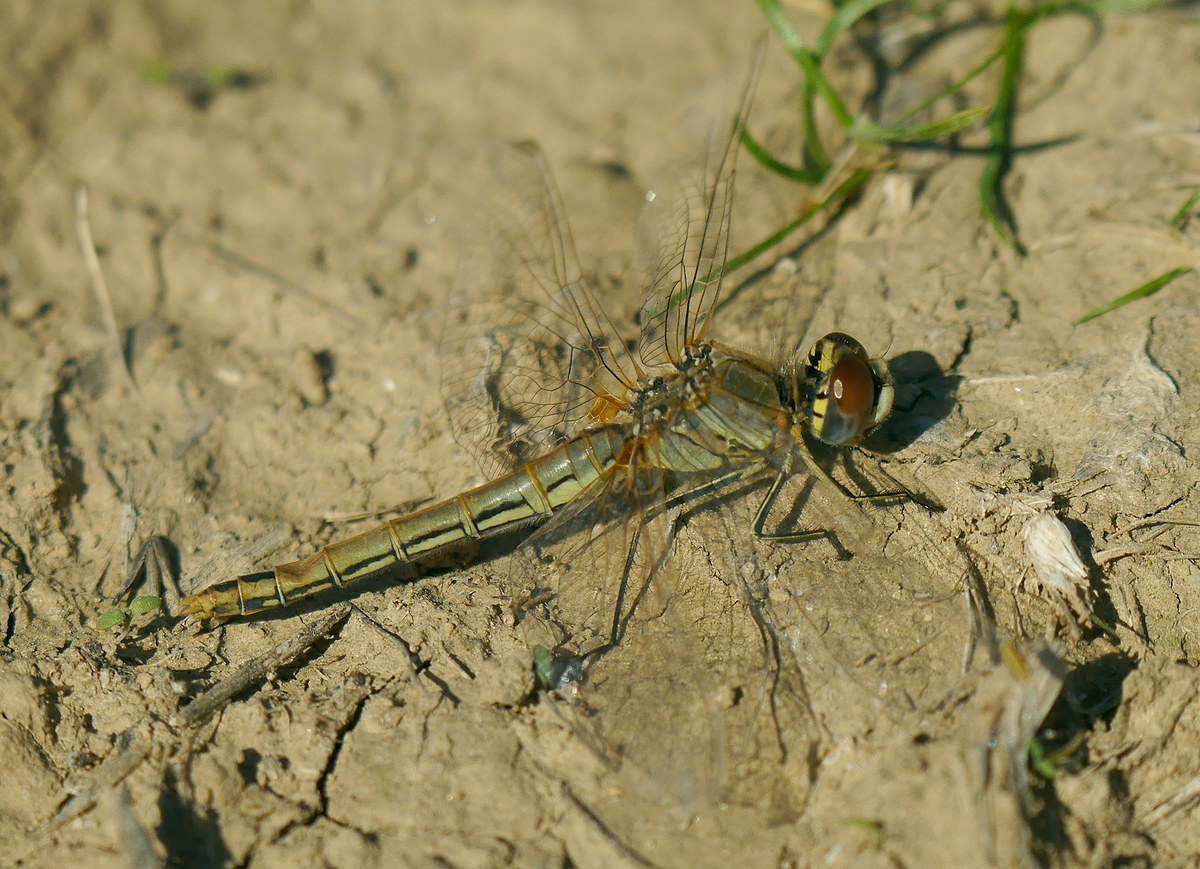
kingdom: Animalia
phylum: Arthropoda
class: Insecta
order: Odonata
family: Libellulidae
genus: Sympetrum
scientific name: Sympetrum fonscolombii
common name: Red-veined darter
